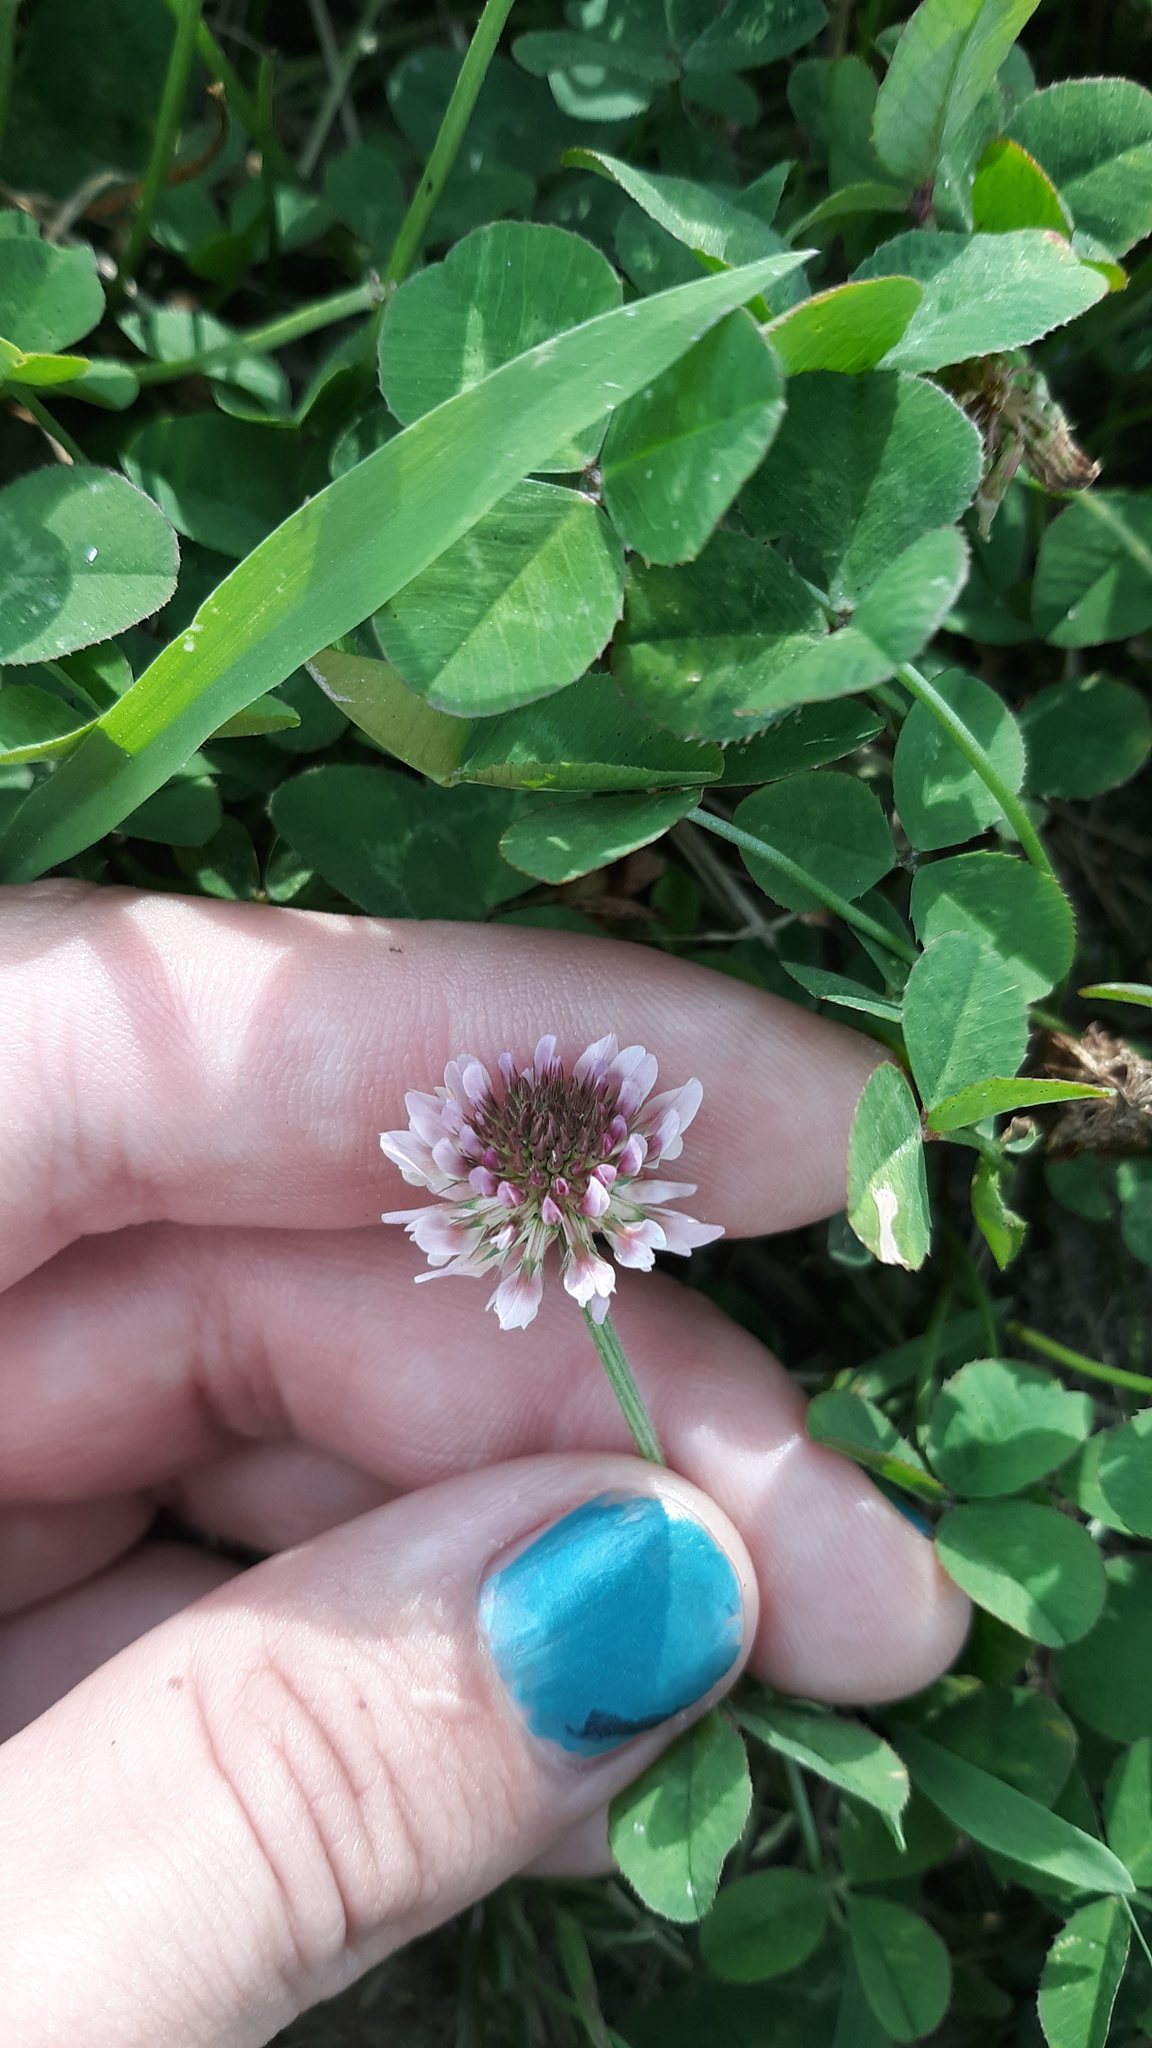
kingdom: Plantae
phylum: Tracheophyta
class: Magnoliopsida
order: Fabales
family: Fabaceae
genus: Trifolium
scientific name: Trifolium repens
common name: White clover
